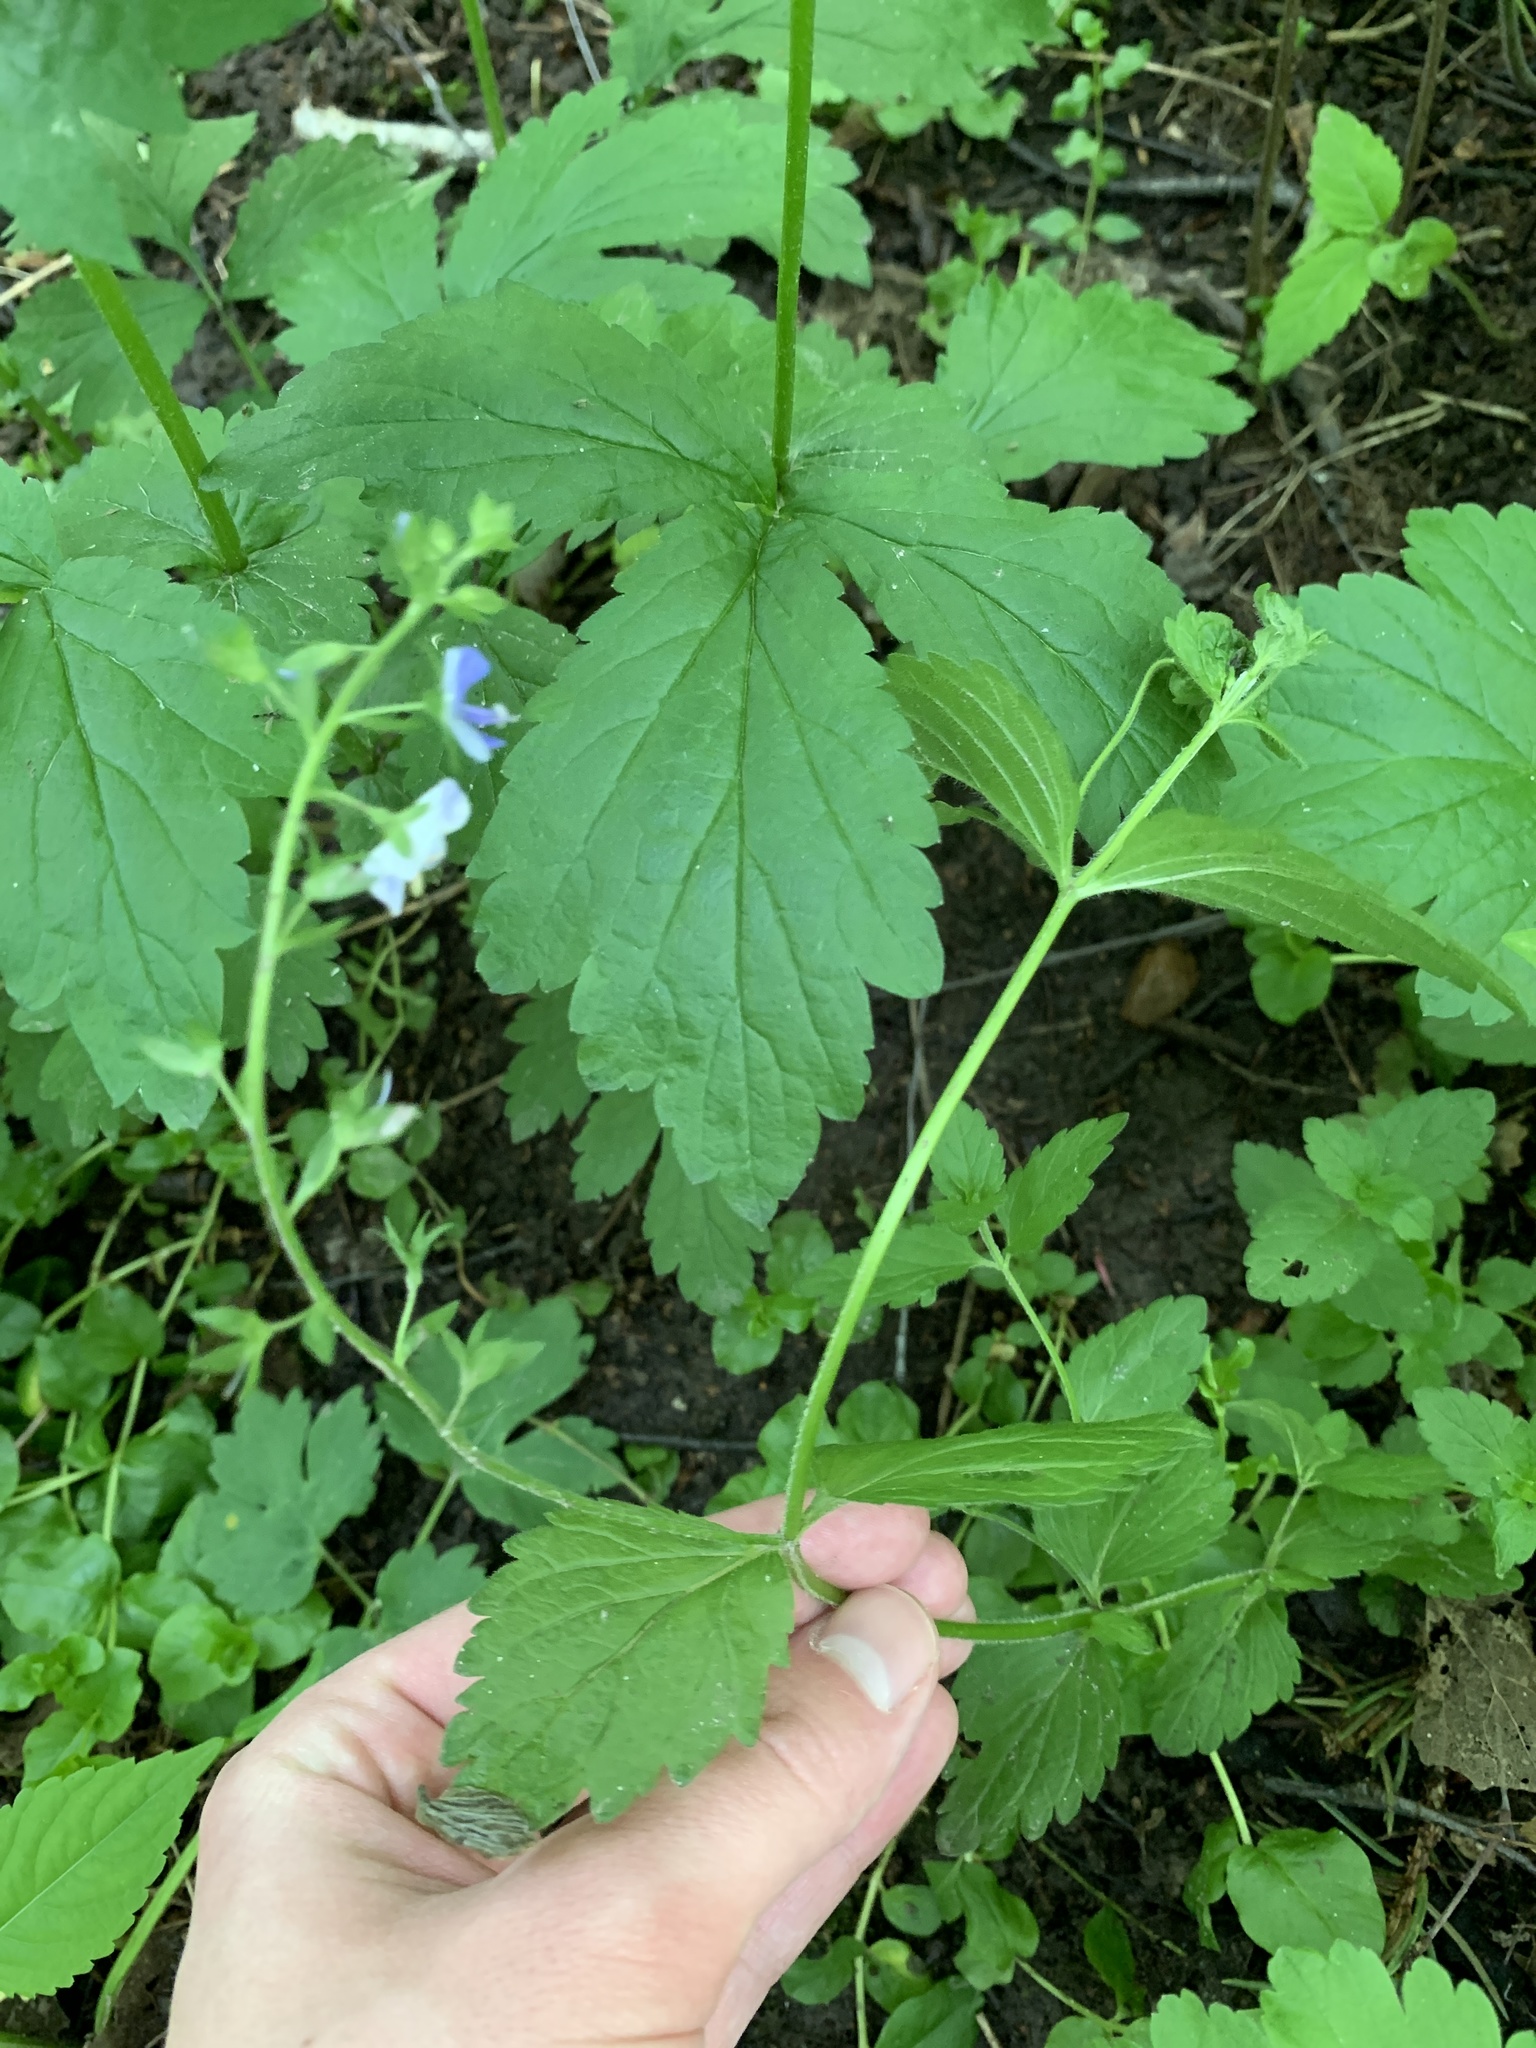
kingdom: Plantae
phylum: Tracheophyta
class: Magnoliopsida
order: Lamiales
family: Plantaginaceae
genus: Veronica
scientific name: Veronica chamaedrys
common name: Germander speedwell
